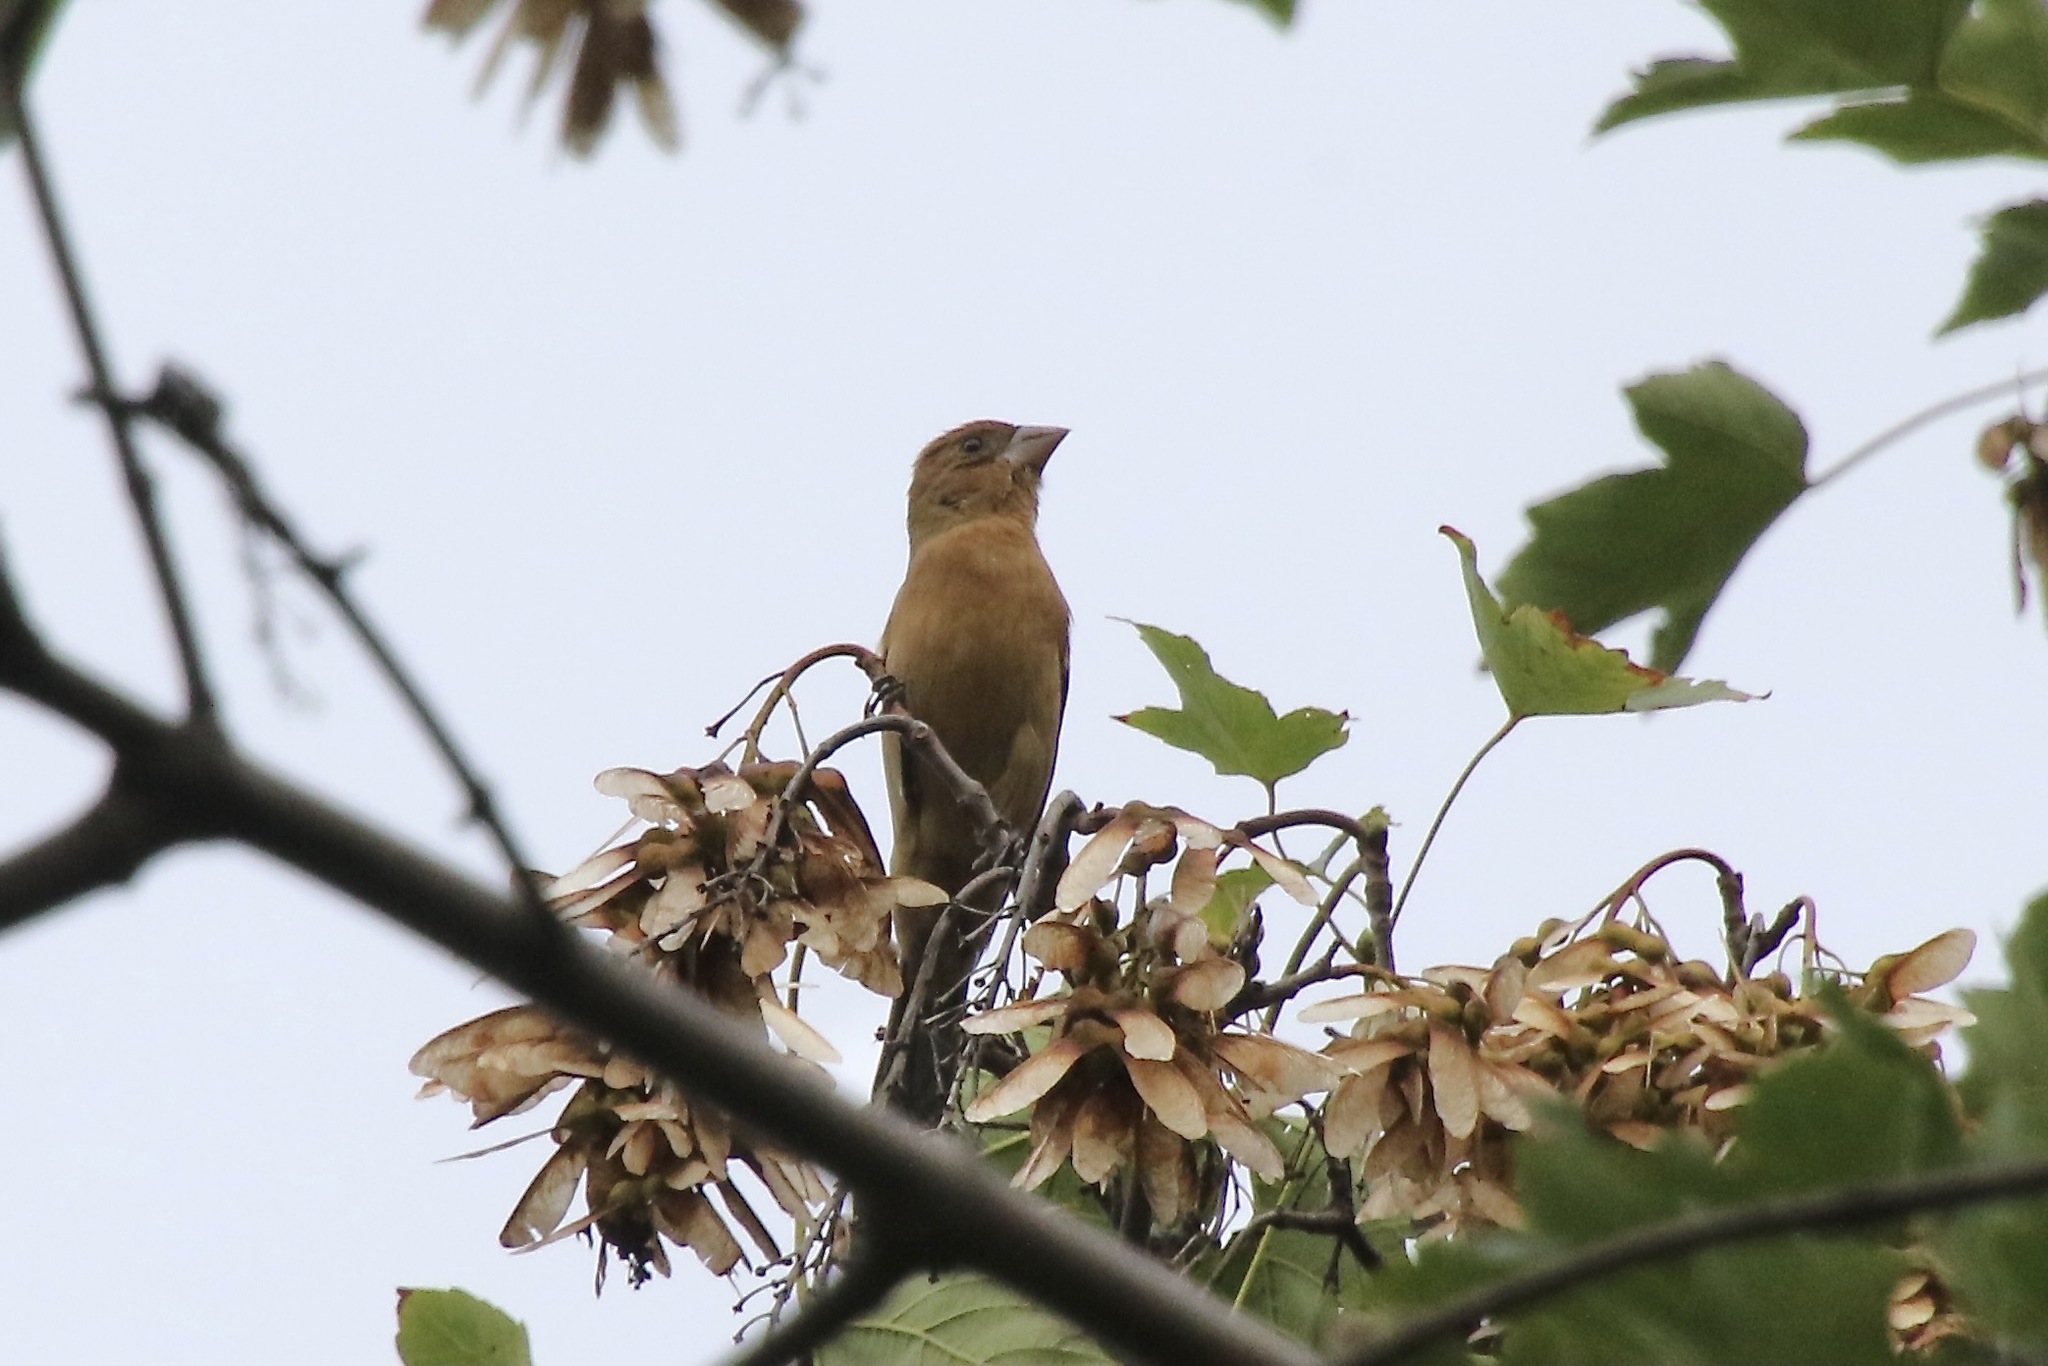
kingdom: Animalia
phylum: Chordata
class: Aves
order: Passeriformes
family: Cardinalidae
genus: Passerina
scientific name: Passerina caerulea
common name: Blue grosbeak
